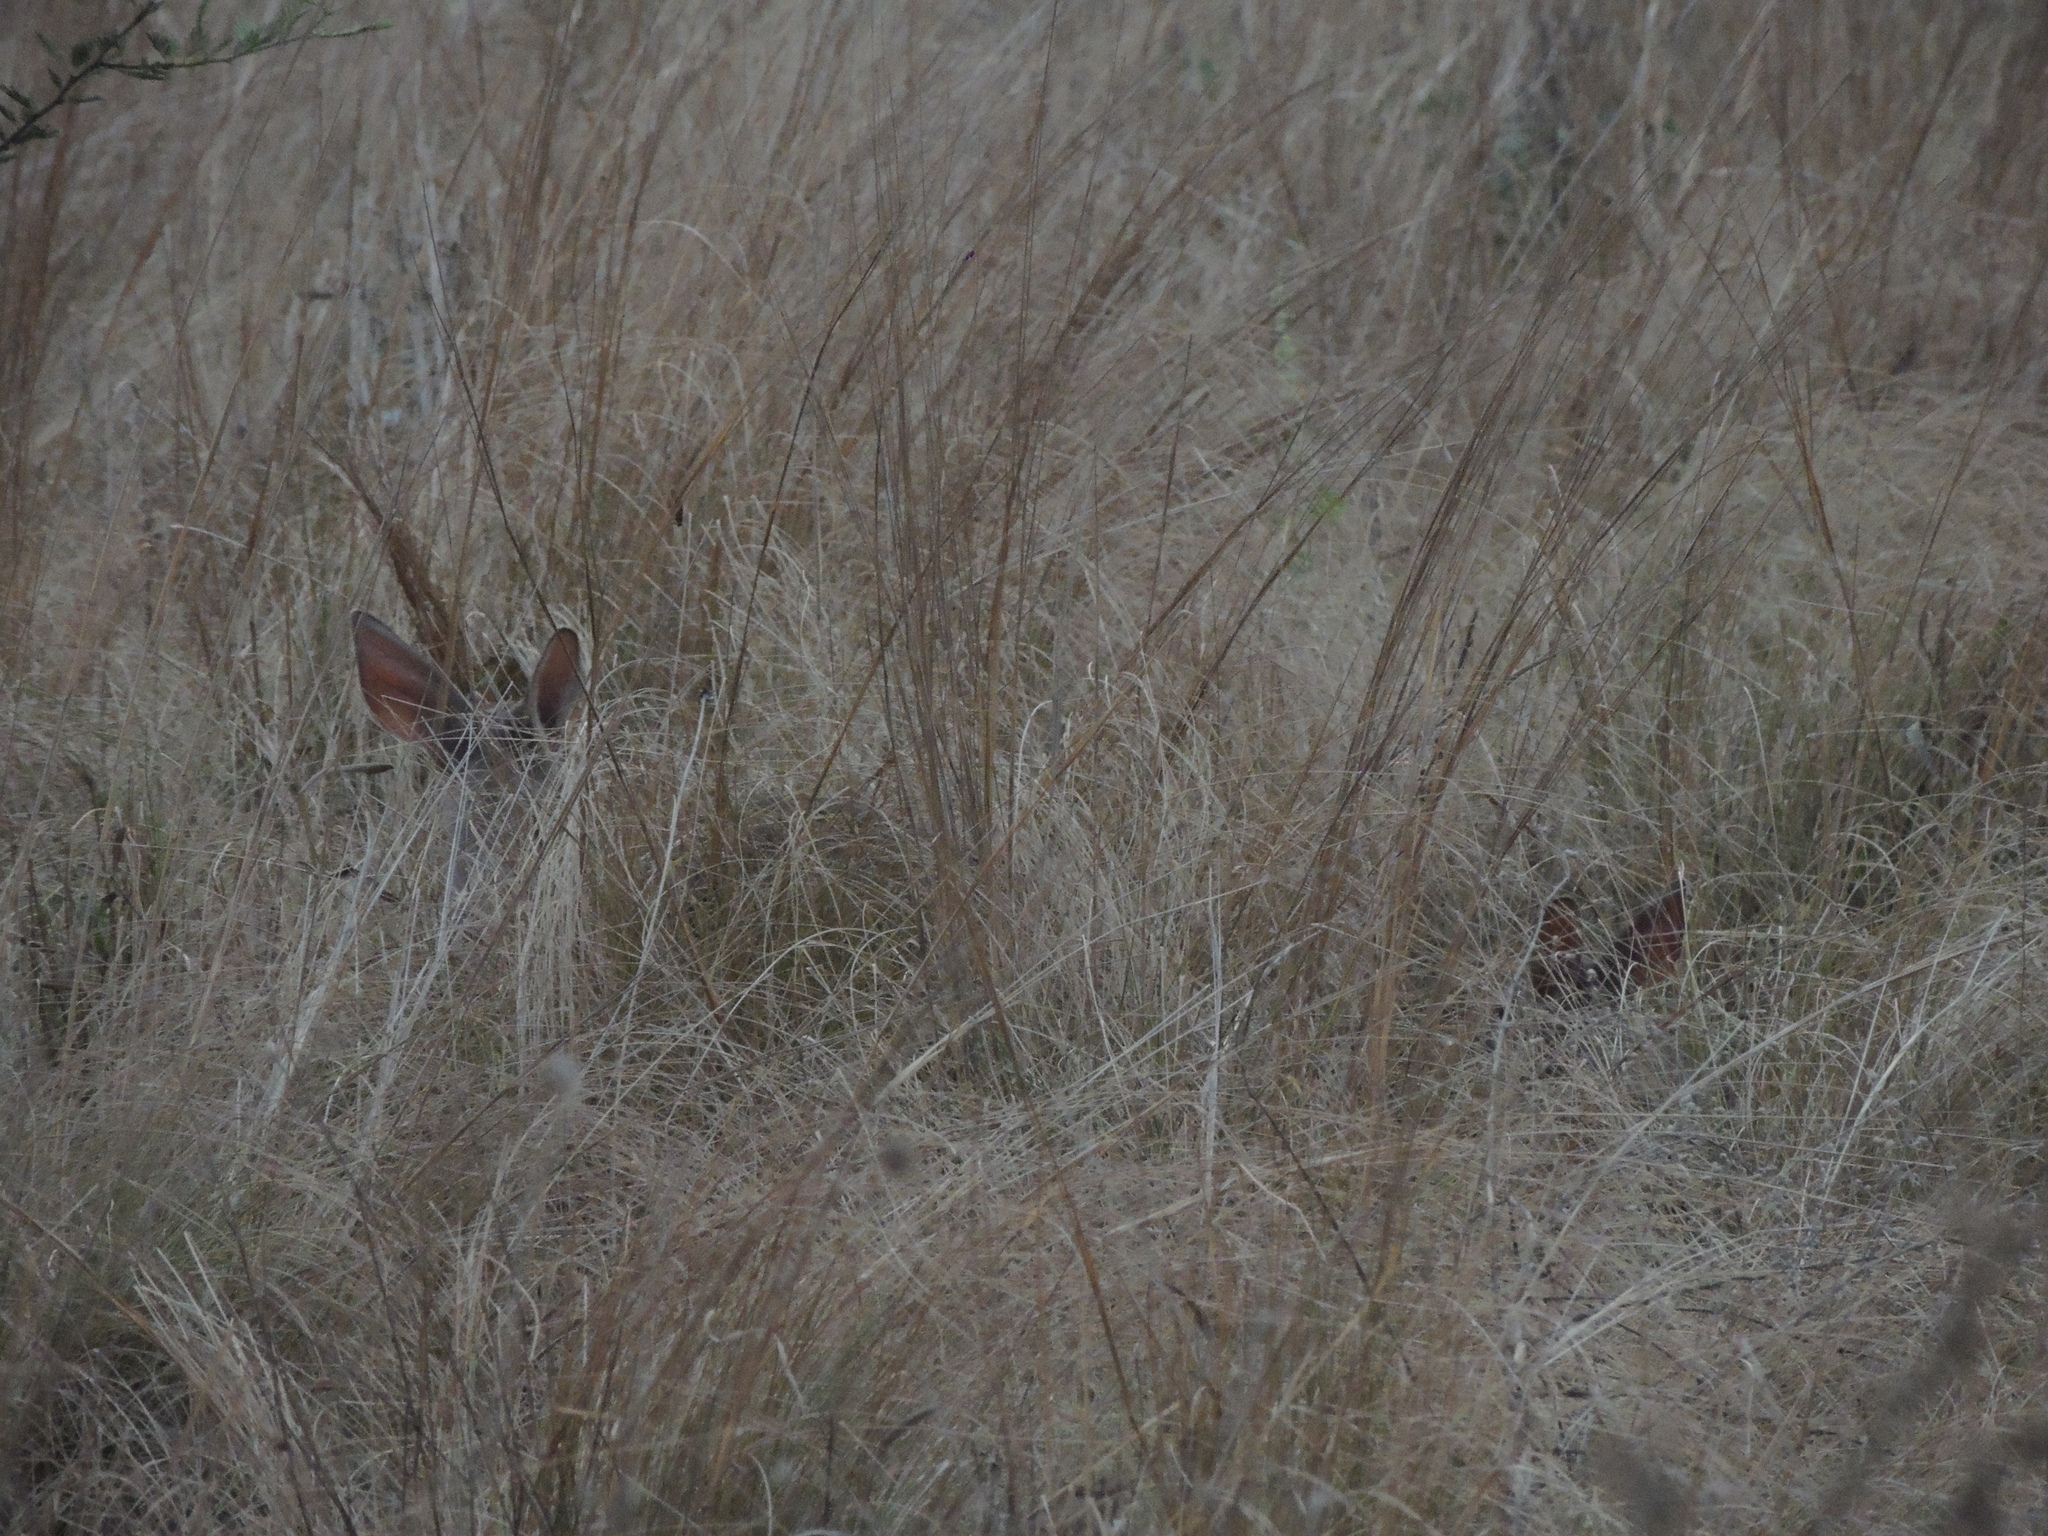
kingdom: Animalia
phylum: Chordata
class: Mammalia
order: Artiodactyla
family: Cervidae
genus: Mazama
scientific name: Mazama gouazoubira
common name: Gray brocket
